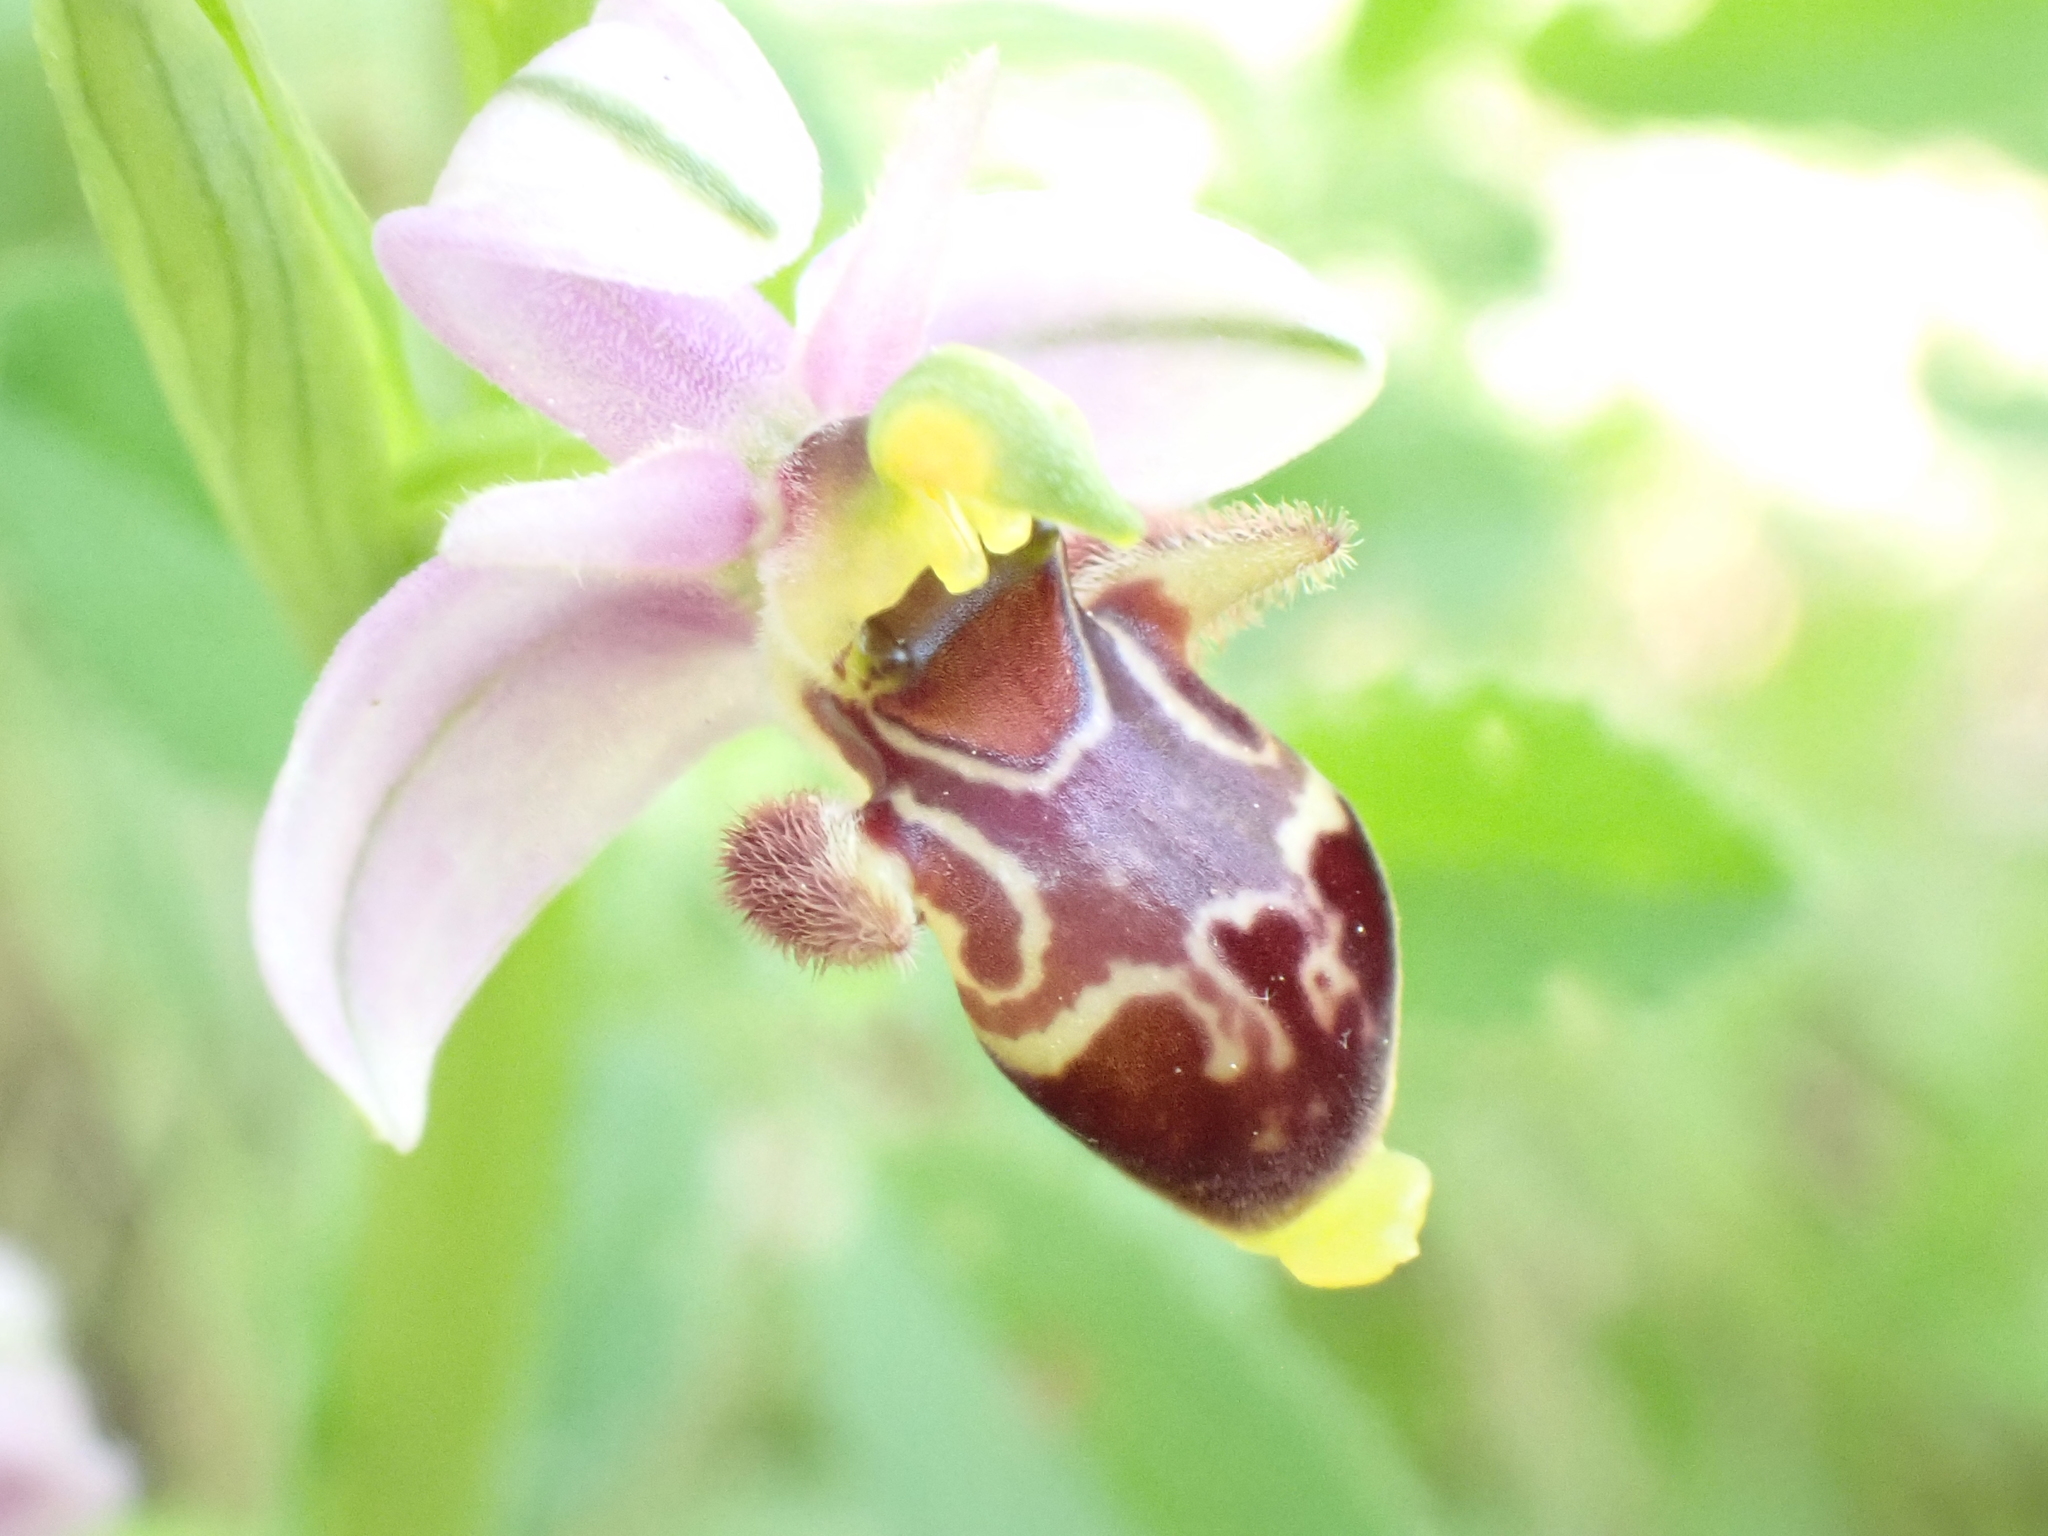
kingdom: Plantae
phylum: Tracheophyta
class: Liliopsida
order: Asparagales
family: Orchidaceae
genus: Ophrys
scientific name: Ophrys scolopax
